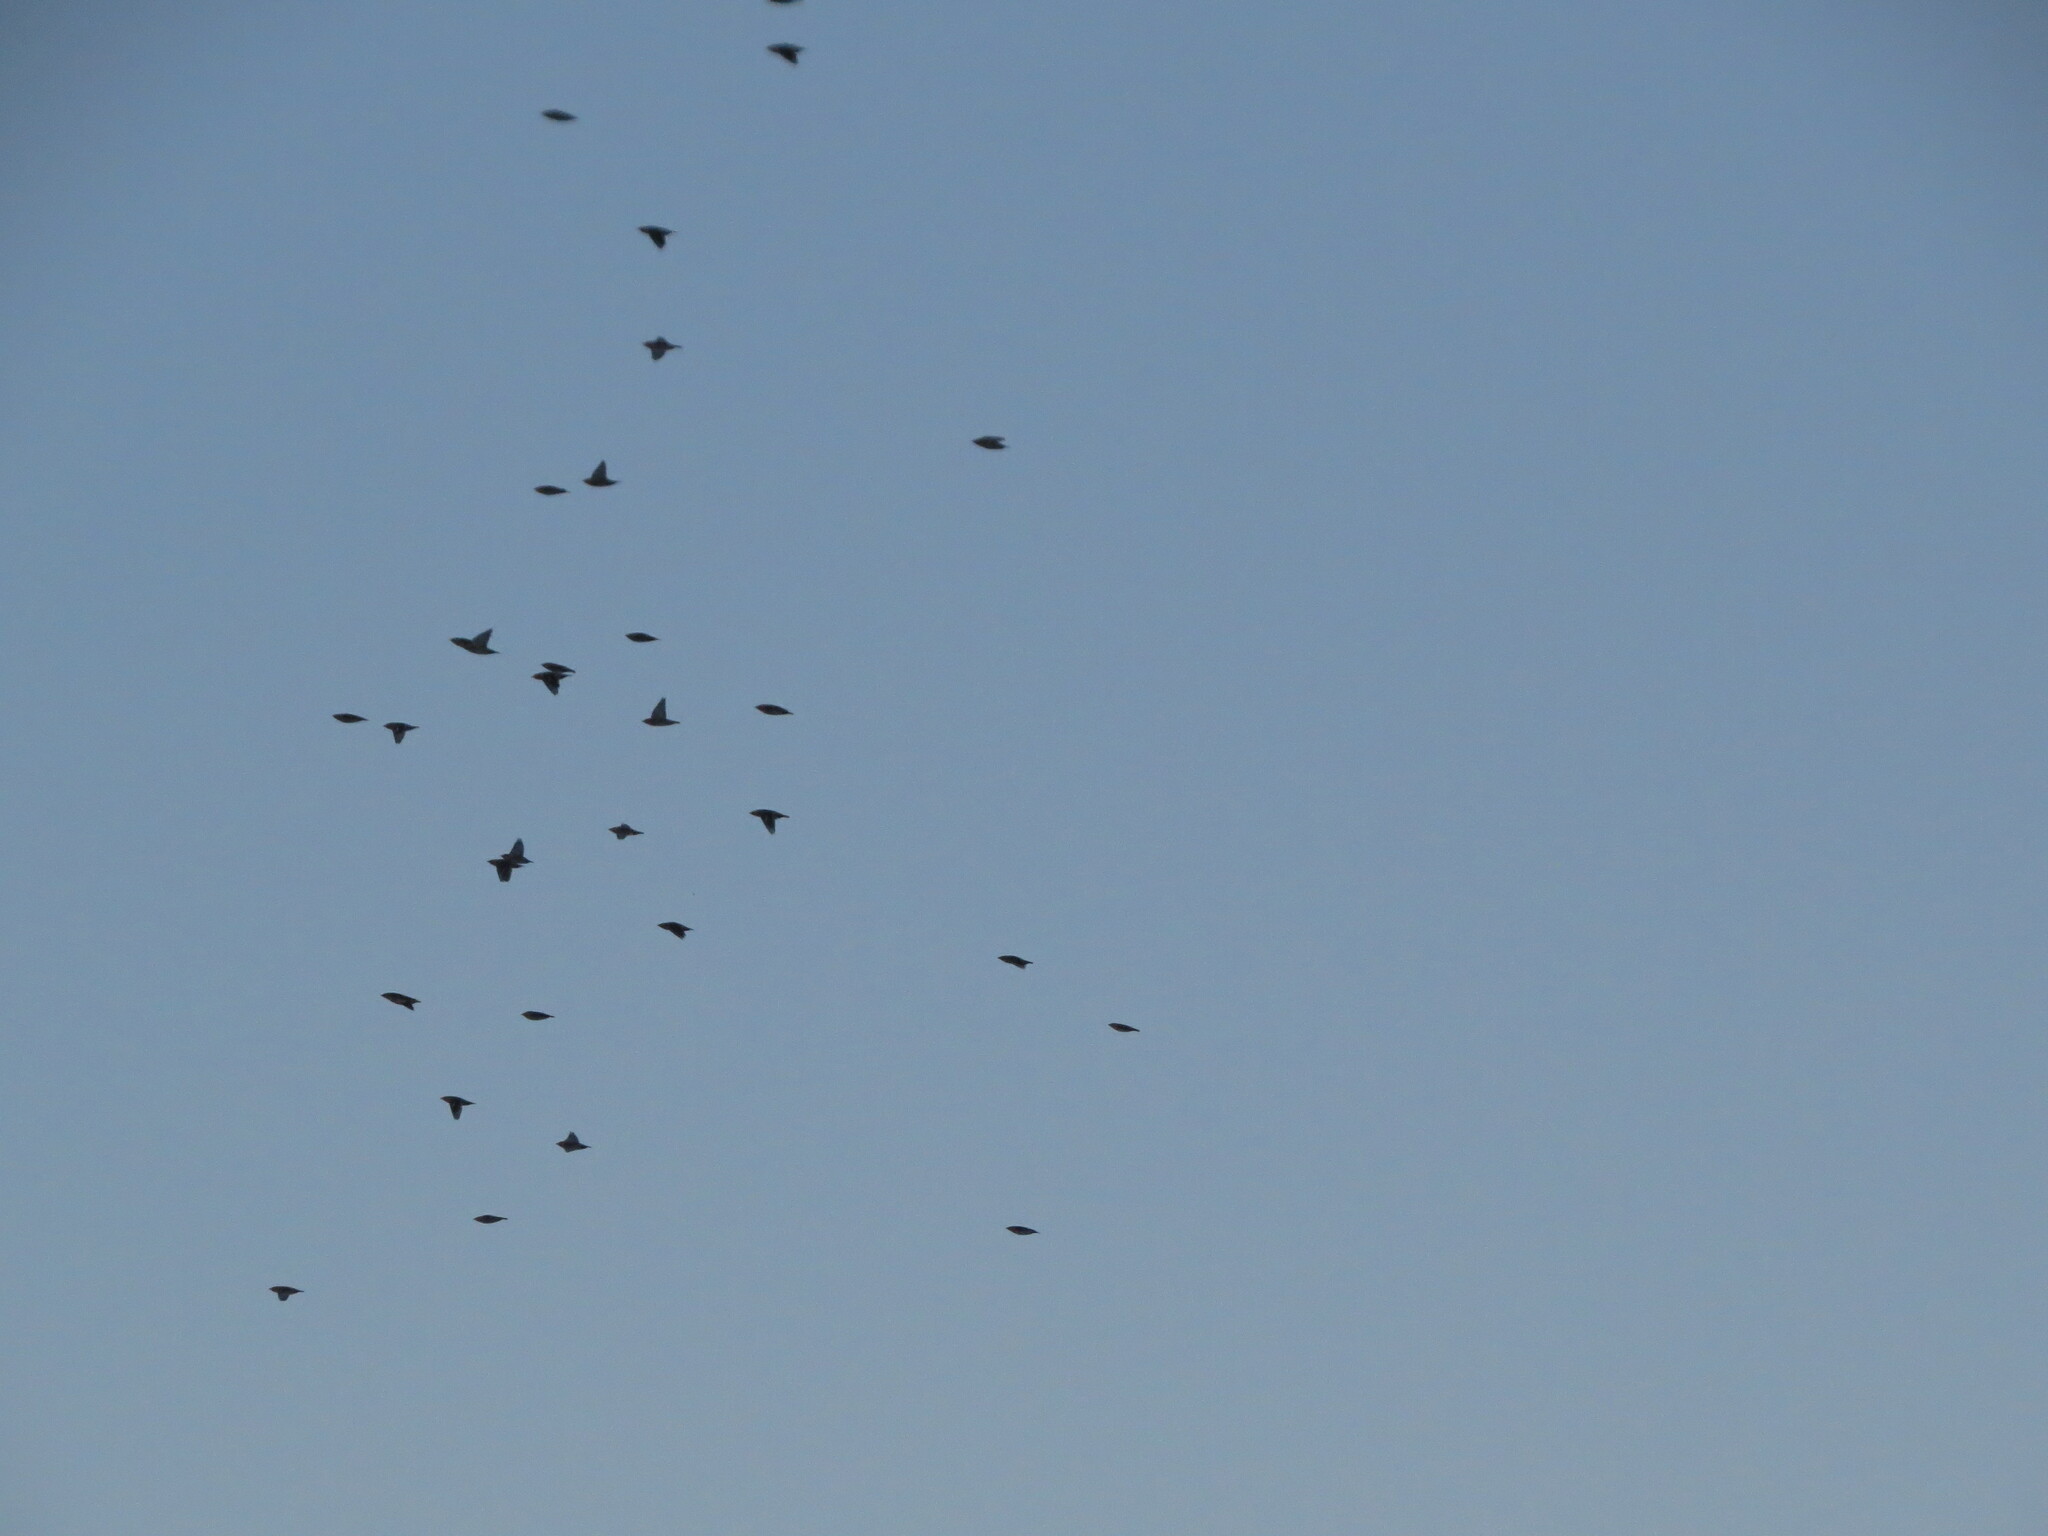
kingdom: Animalia
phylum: Chordata
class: Aves
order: Passeriformes
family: Bombycillidae
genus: Bombycilla
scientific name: Bombycilla garrulus
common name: Bohemian waxwing
